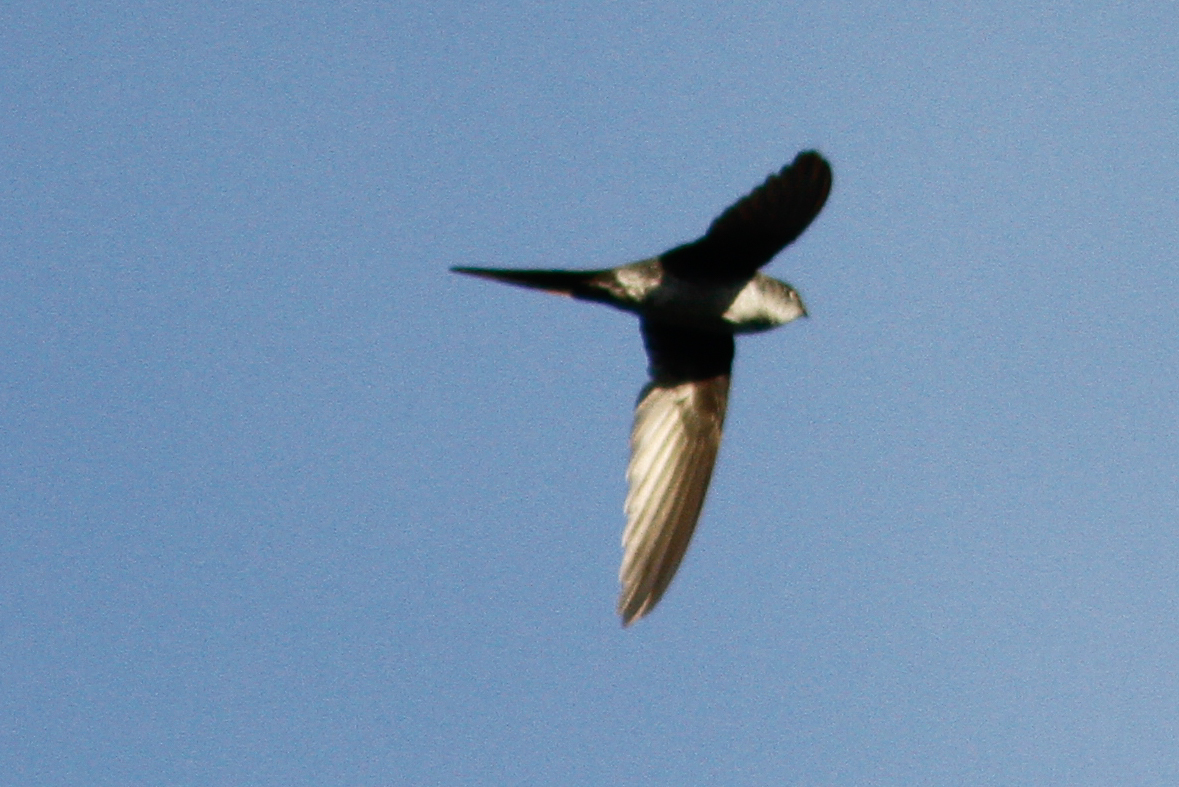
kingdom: Animalia
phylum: Chordata
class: Aves
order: Apodiformes
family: Apodidae
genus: Tachornis
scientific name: Tachornis squamata
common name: Neotropical palm swift
